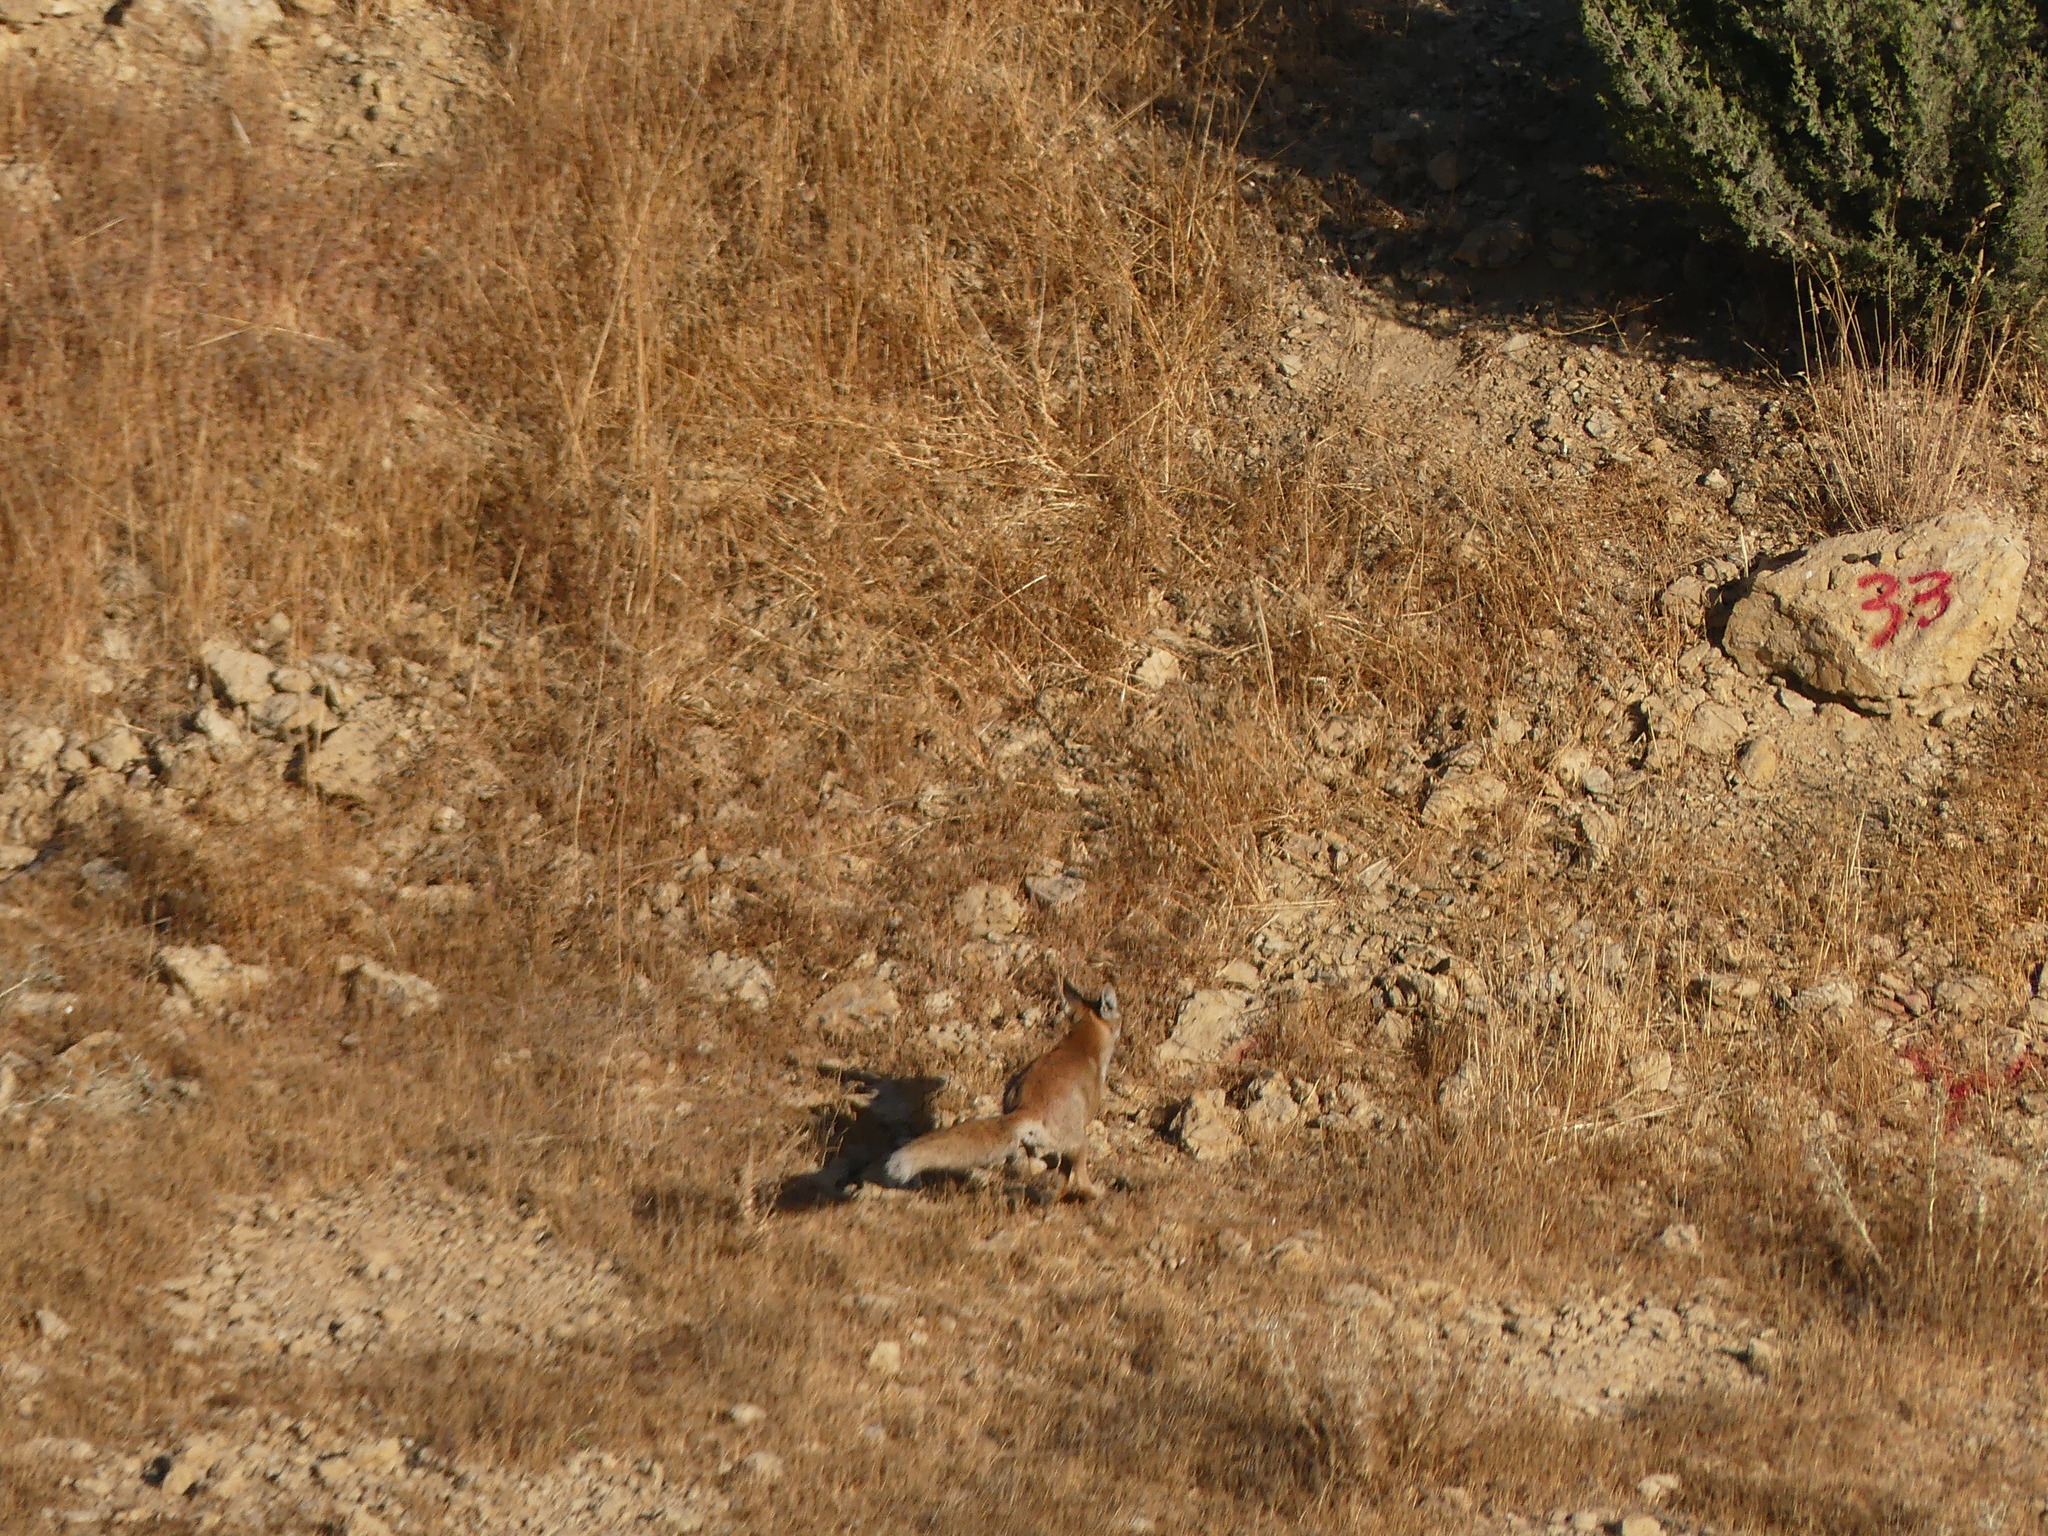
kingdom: Animalia
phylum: Chordata
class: Mammalia
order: Carnivora
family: Canidae
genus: Vulpes
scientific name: Vulpes vulpes
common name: Red fox
